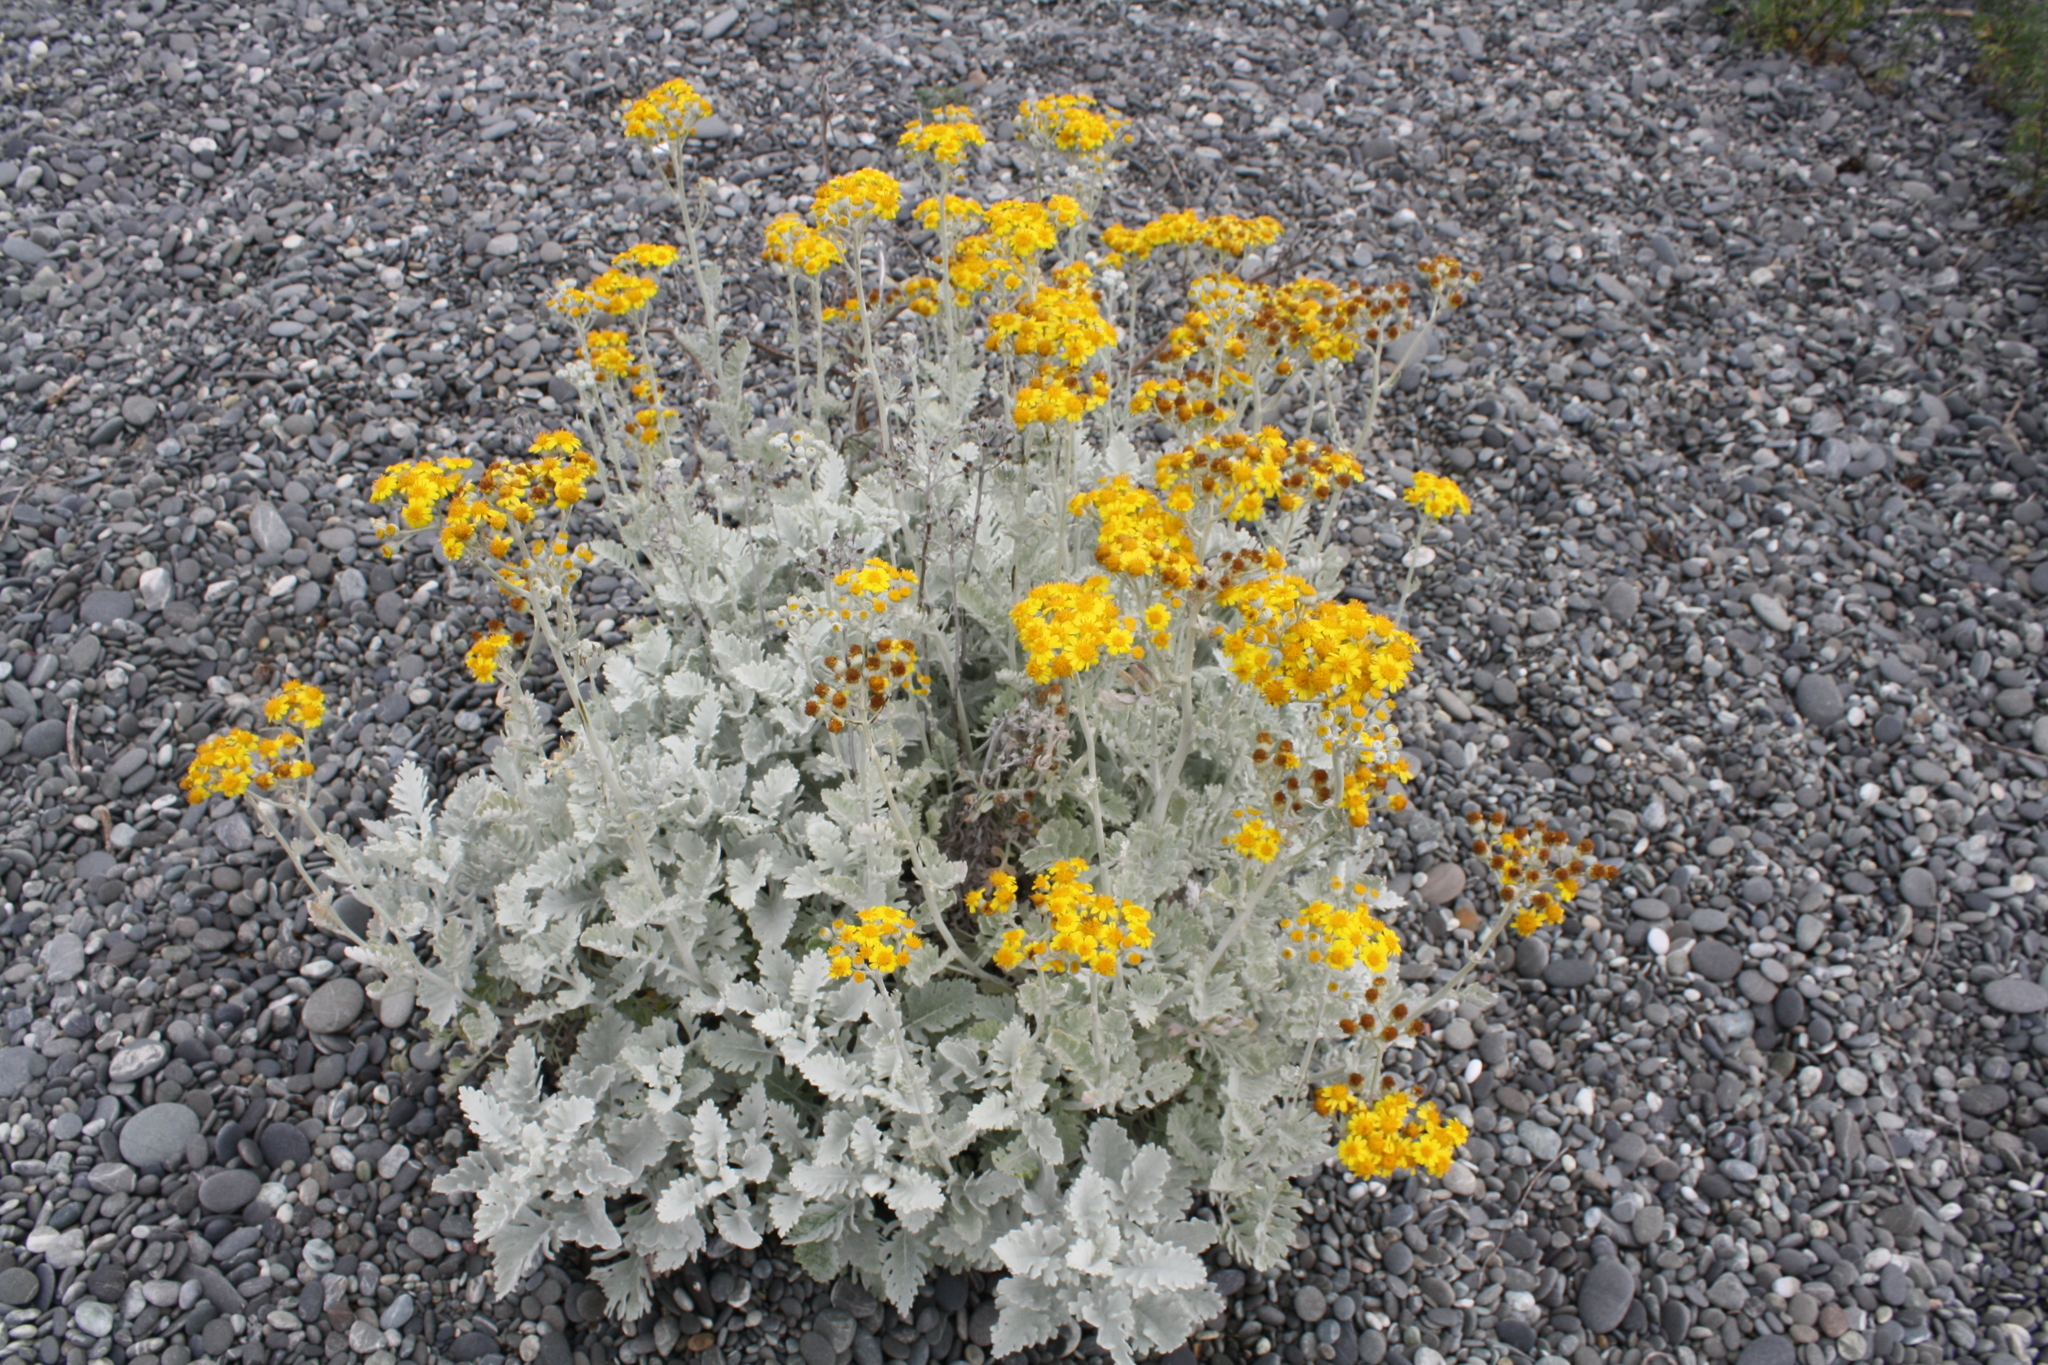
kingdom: Plantae
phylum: Tracheophyta
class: Magnoliopsida
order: Asterales
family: Asteraceae
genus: Jacobaea
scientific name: Jacobaea maritima
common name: Silver ragwort
